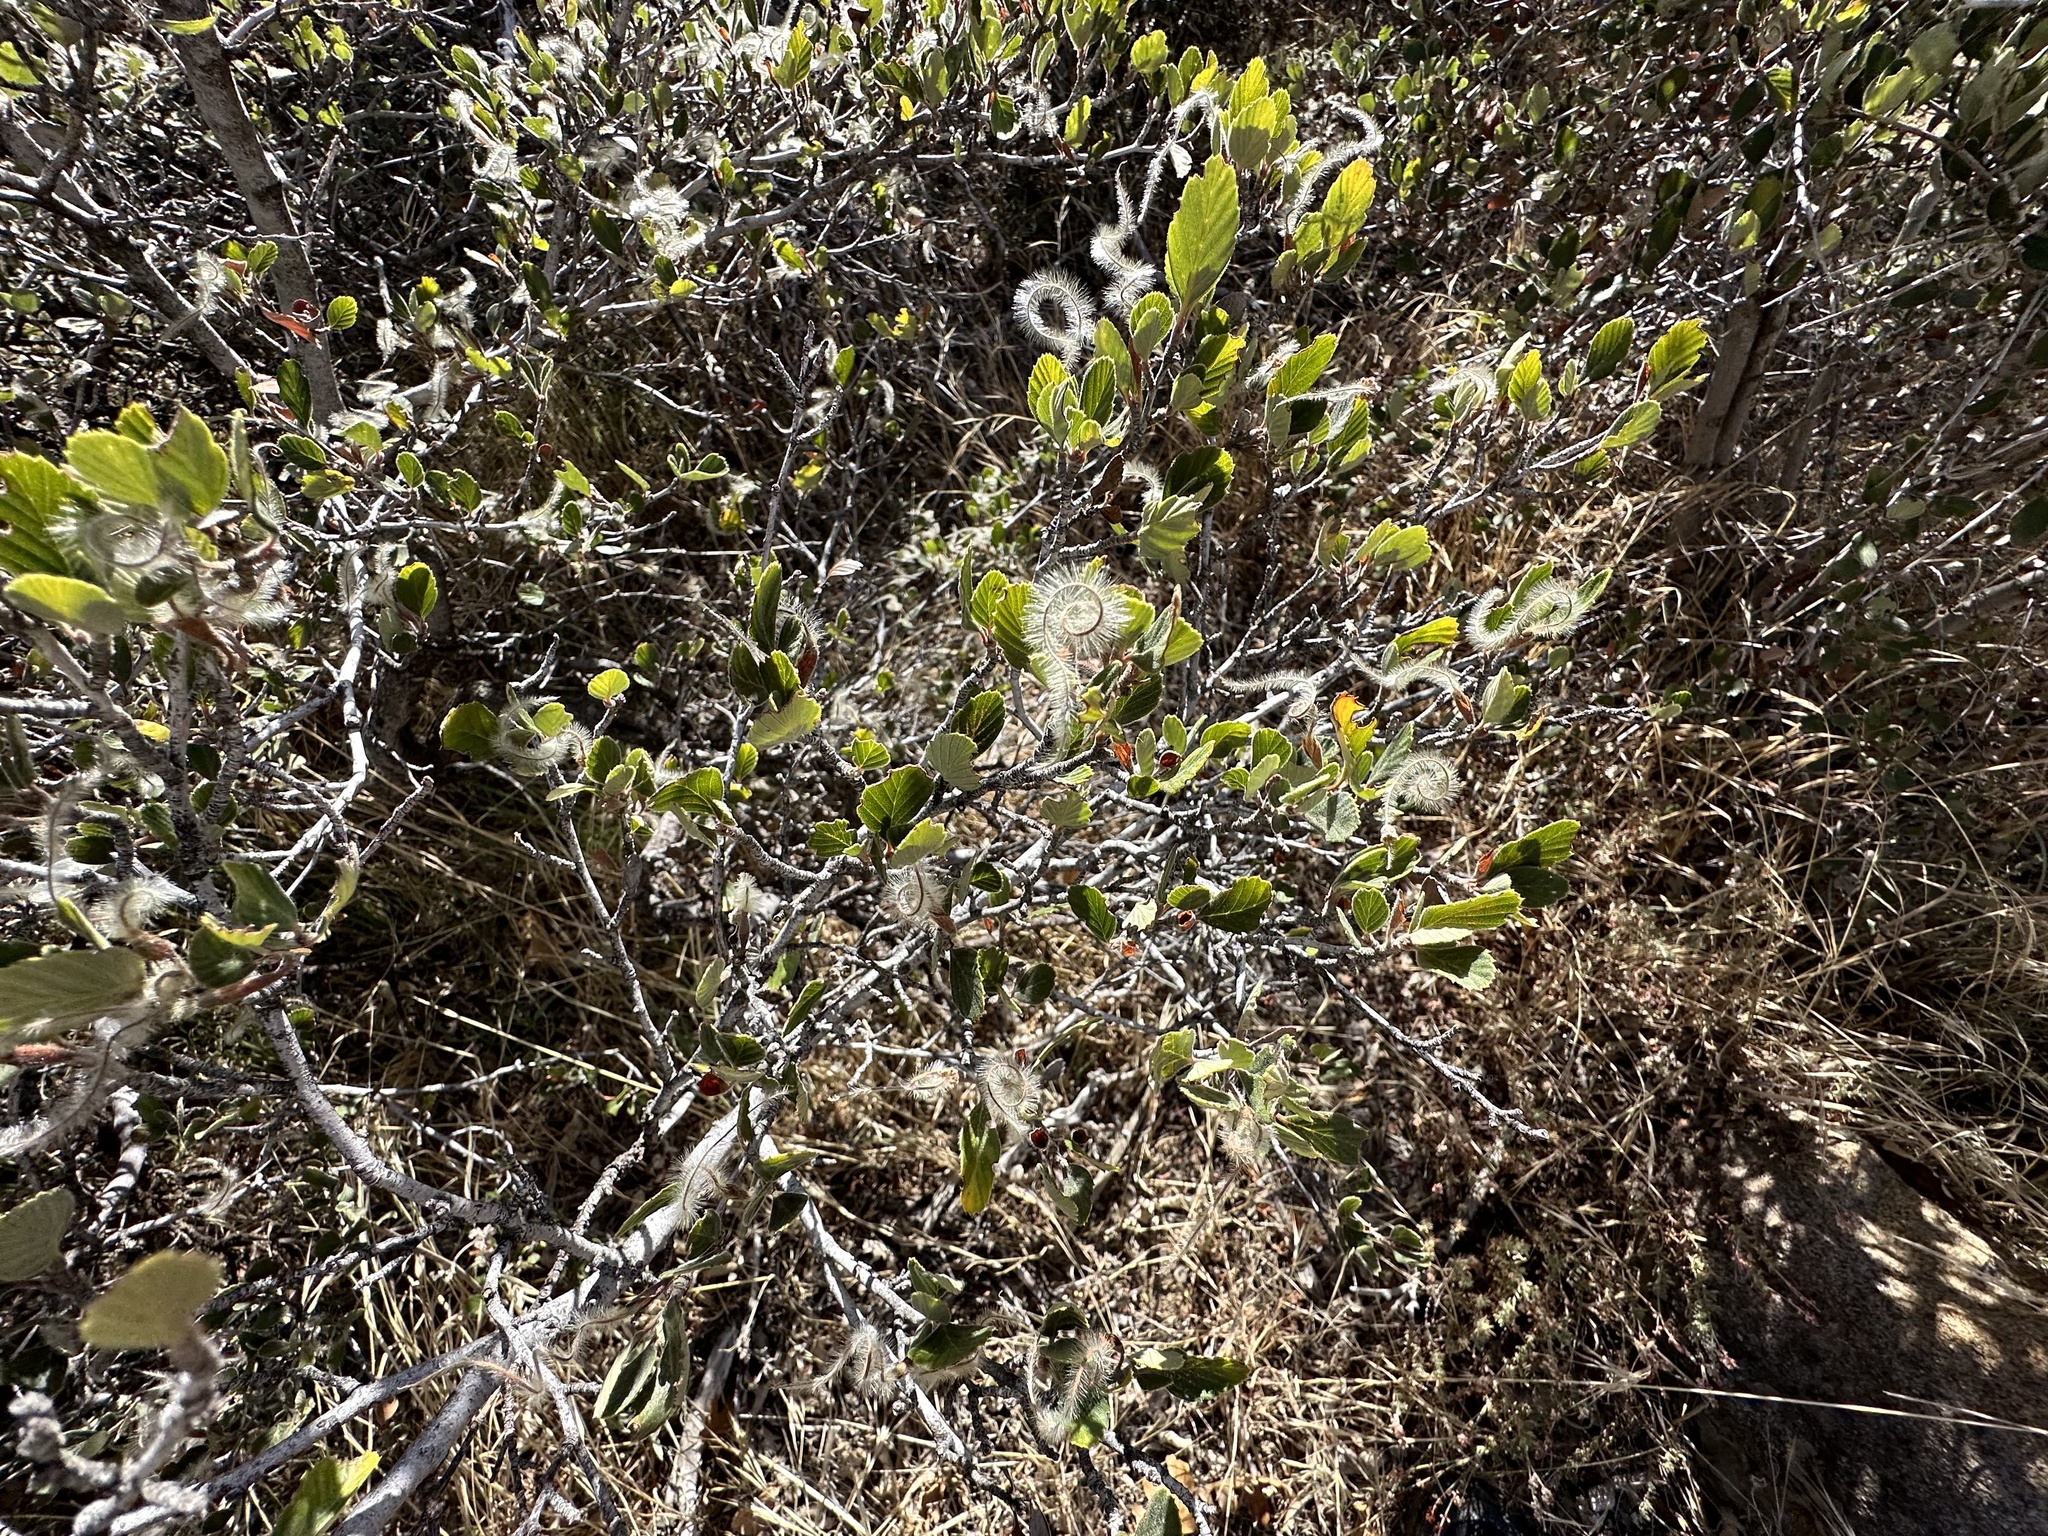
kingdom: Plantae
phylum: Tracheophyta
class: Magnoliopsida
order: Rosales
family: Rosaceae
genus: Cercocarpus
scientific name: Cercocarpus betuloides
